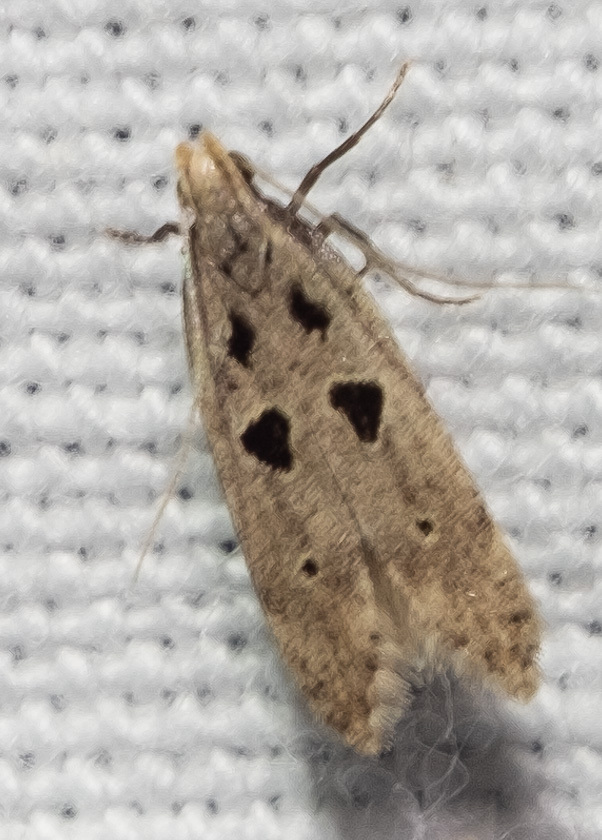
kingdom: Animalia
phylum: Arthropoda
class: Insecta
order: Lepidoptera
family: Gelechiidae
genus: Deltophora
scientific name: Deltophora sella
